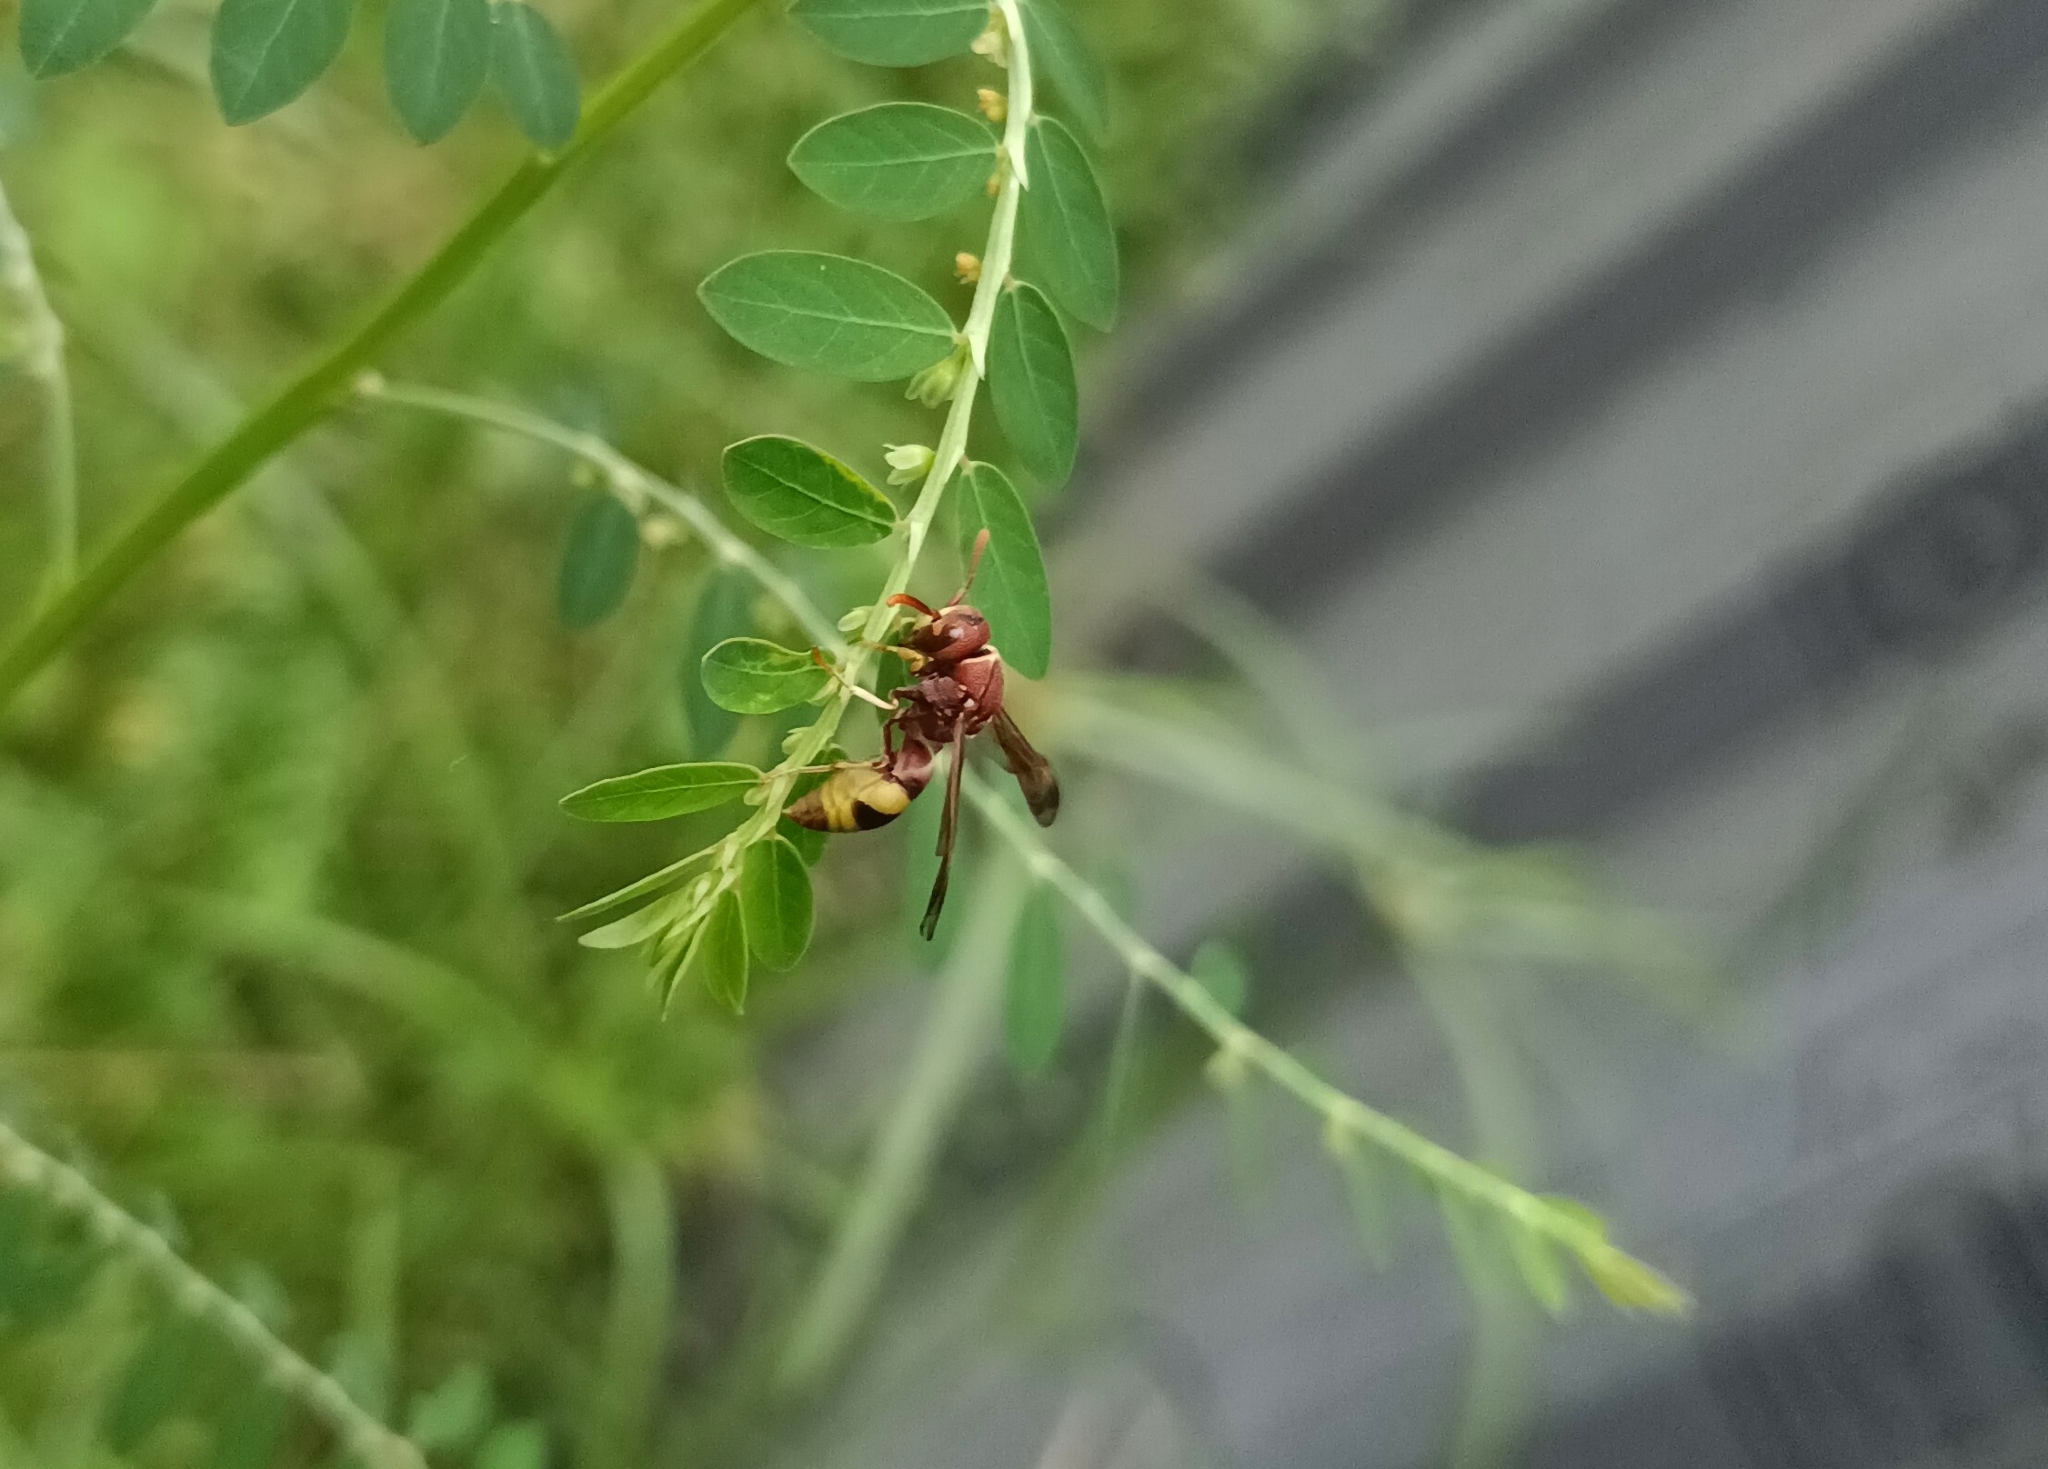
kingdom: Animalia
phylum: Arthropoda
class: Insecta
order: Hymenoptera
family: Eumenidae
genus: Antodynerus
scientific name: Antodynerus punctatipennis
